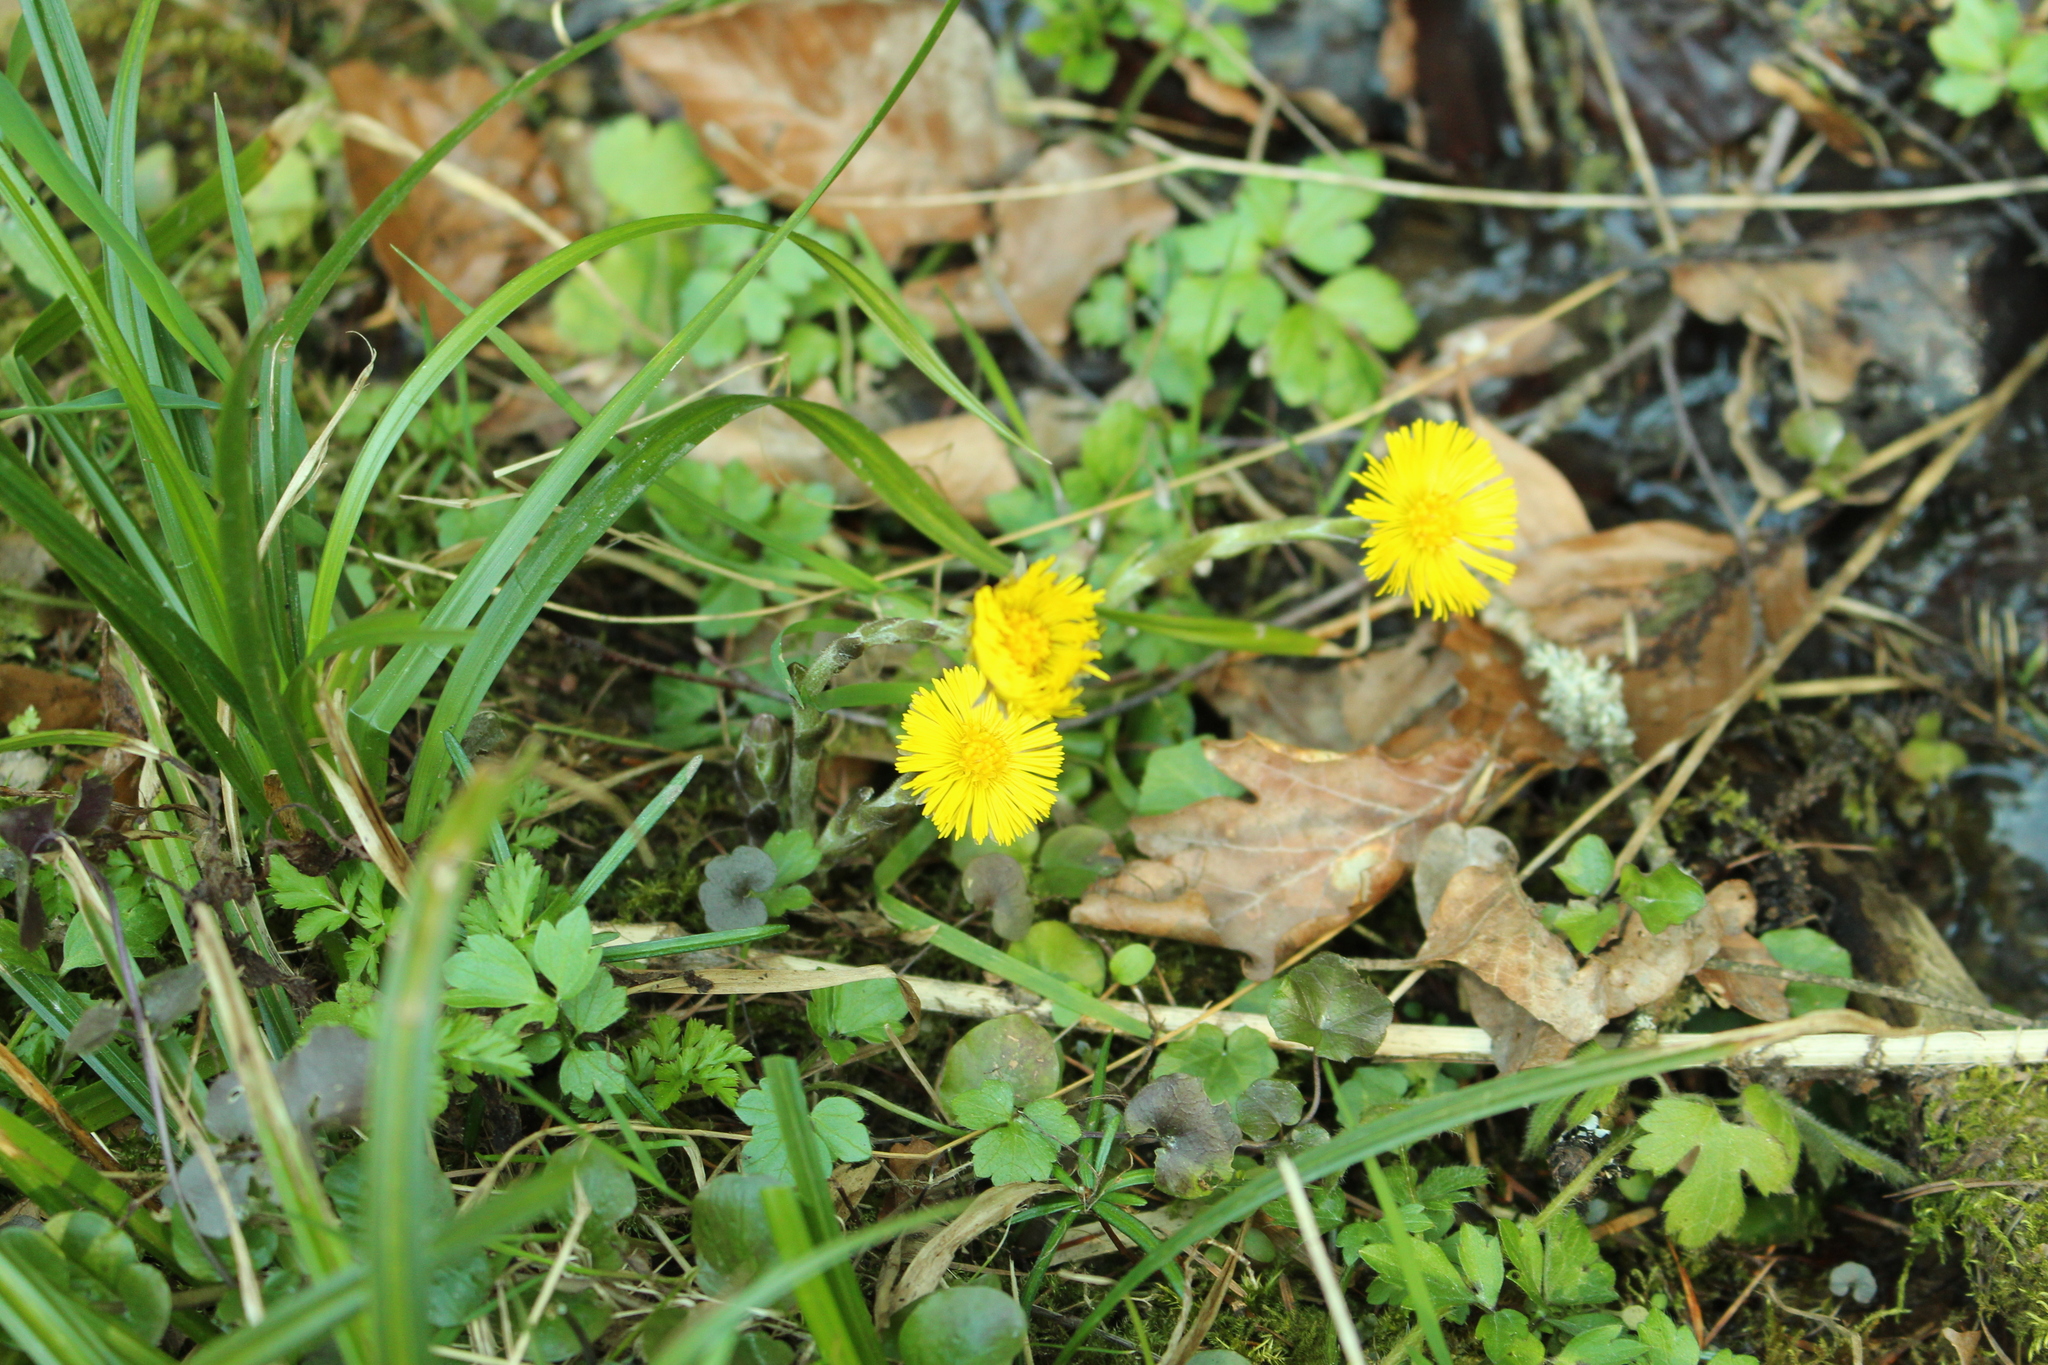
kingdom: Plantae
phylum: Tracheophyta
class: Magnoliopsida
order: Asterales
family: Asteraceae
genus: Tussilago
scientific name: Tussilago farfara
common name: Coltsfoot
